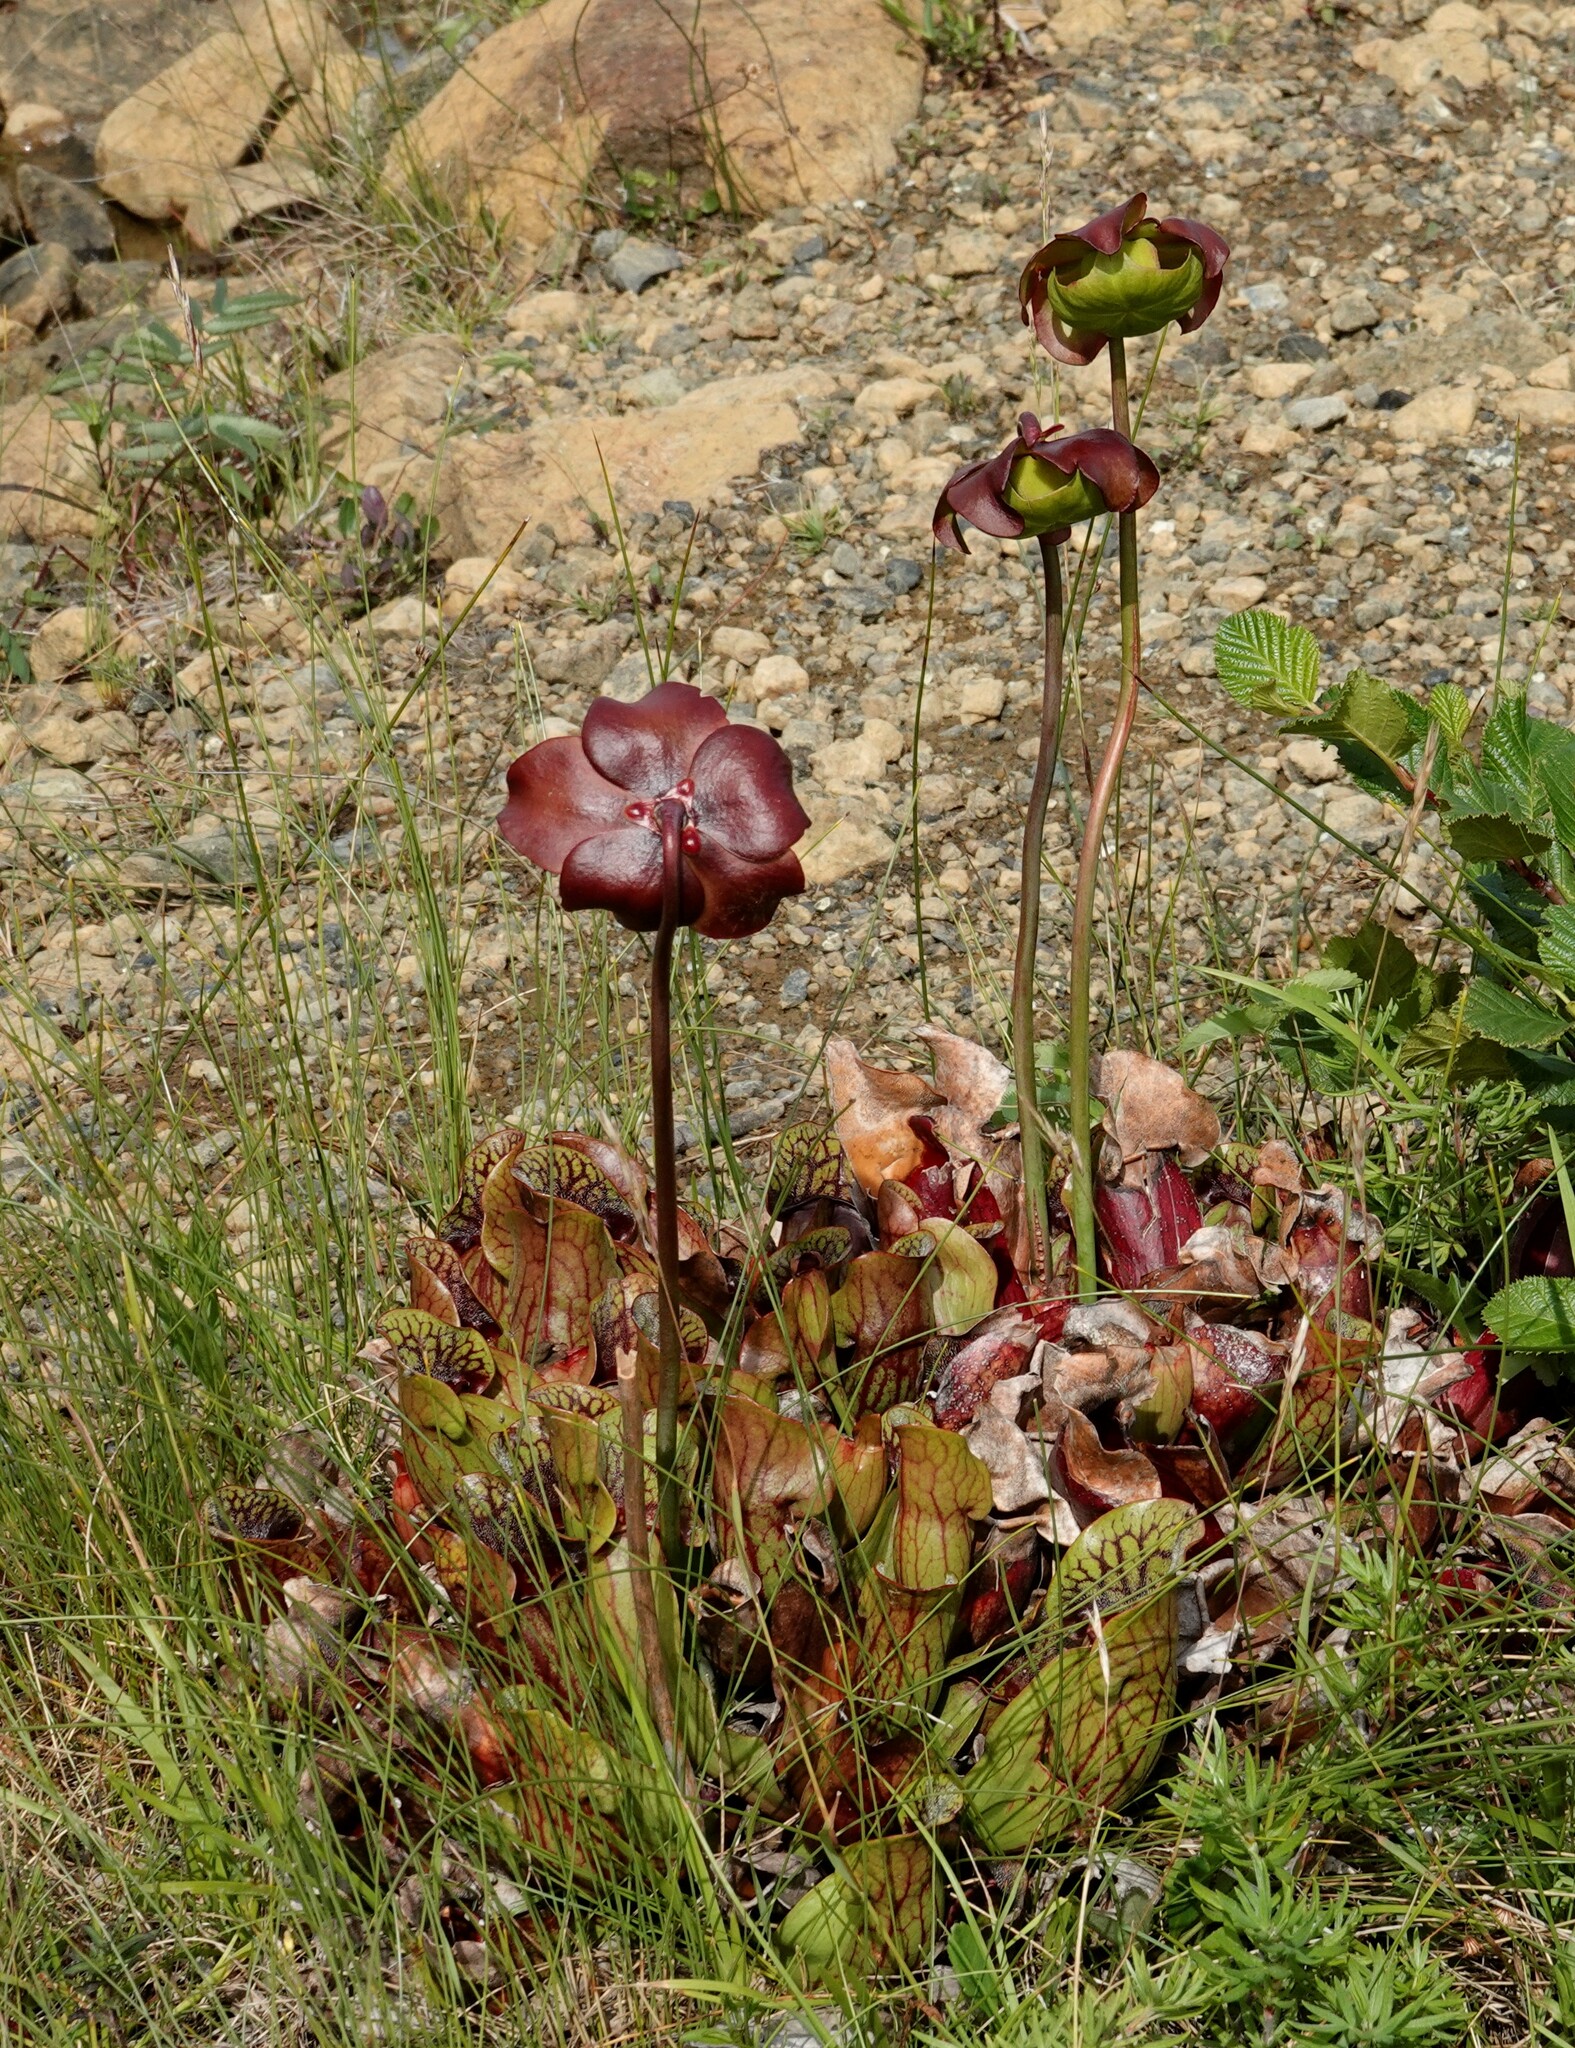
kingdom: Plantae
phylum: Tracheophyta
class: Magnoliopsida
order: Ericales
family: Sarraceniaceae
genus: Sarracenia
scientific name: Sarracenia purpurea
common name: Pitcherplant
